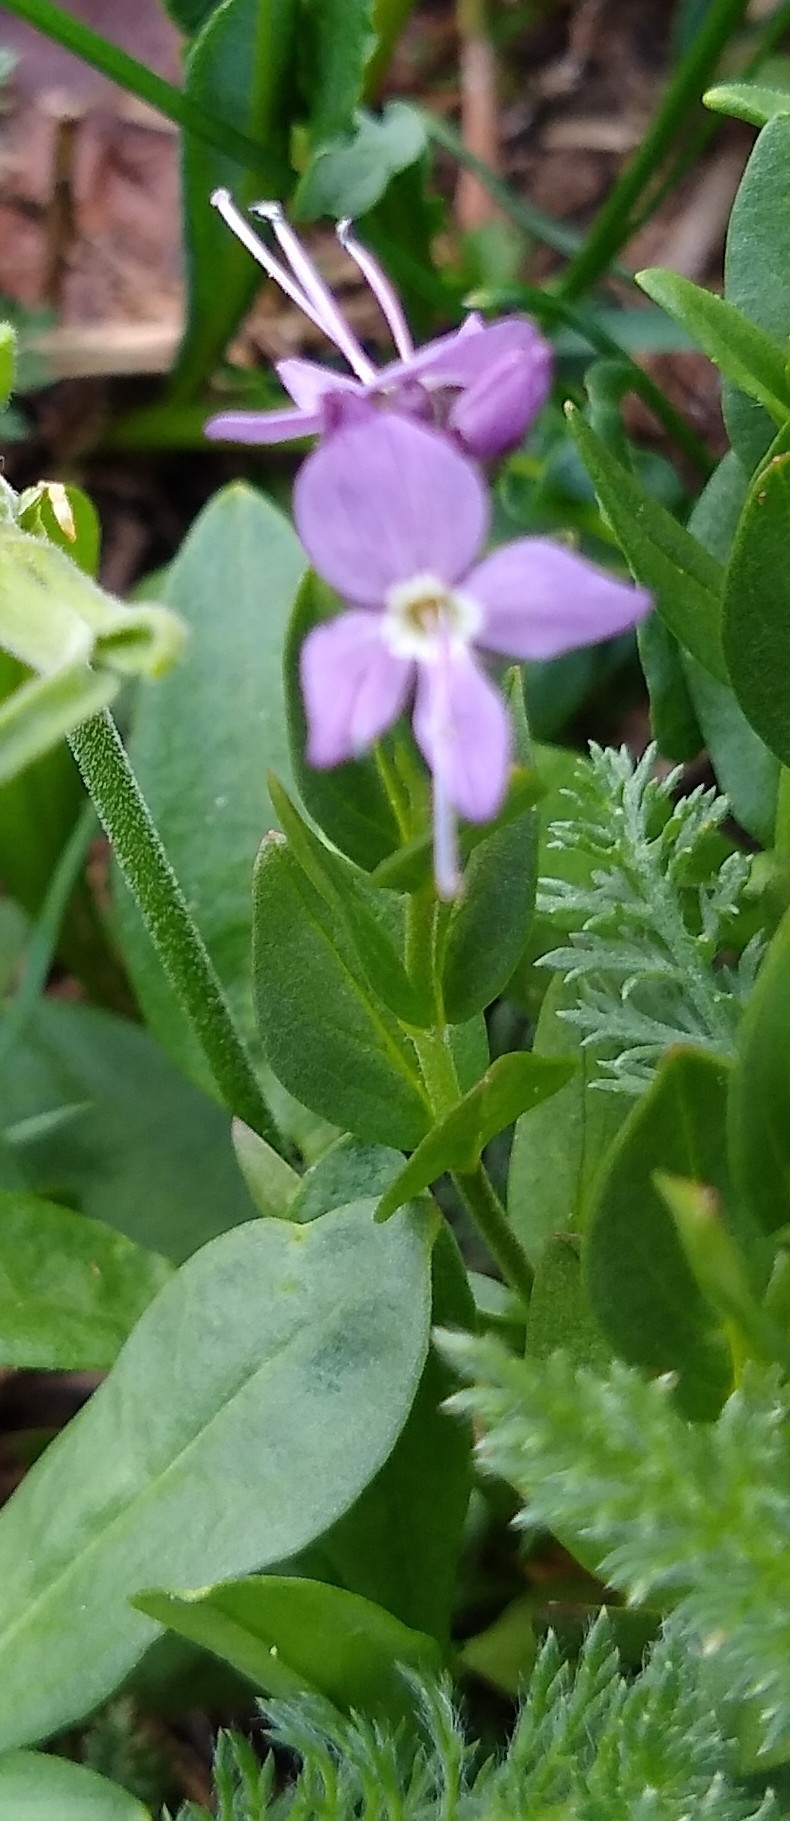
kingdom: Plantae
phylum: Tracheophyta
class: Magnoliopsida
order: Lamiales
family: Plantaginaceae
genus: Veronica
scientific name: Veronica cusickii
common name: Cusick's speedwell
